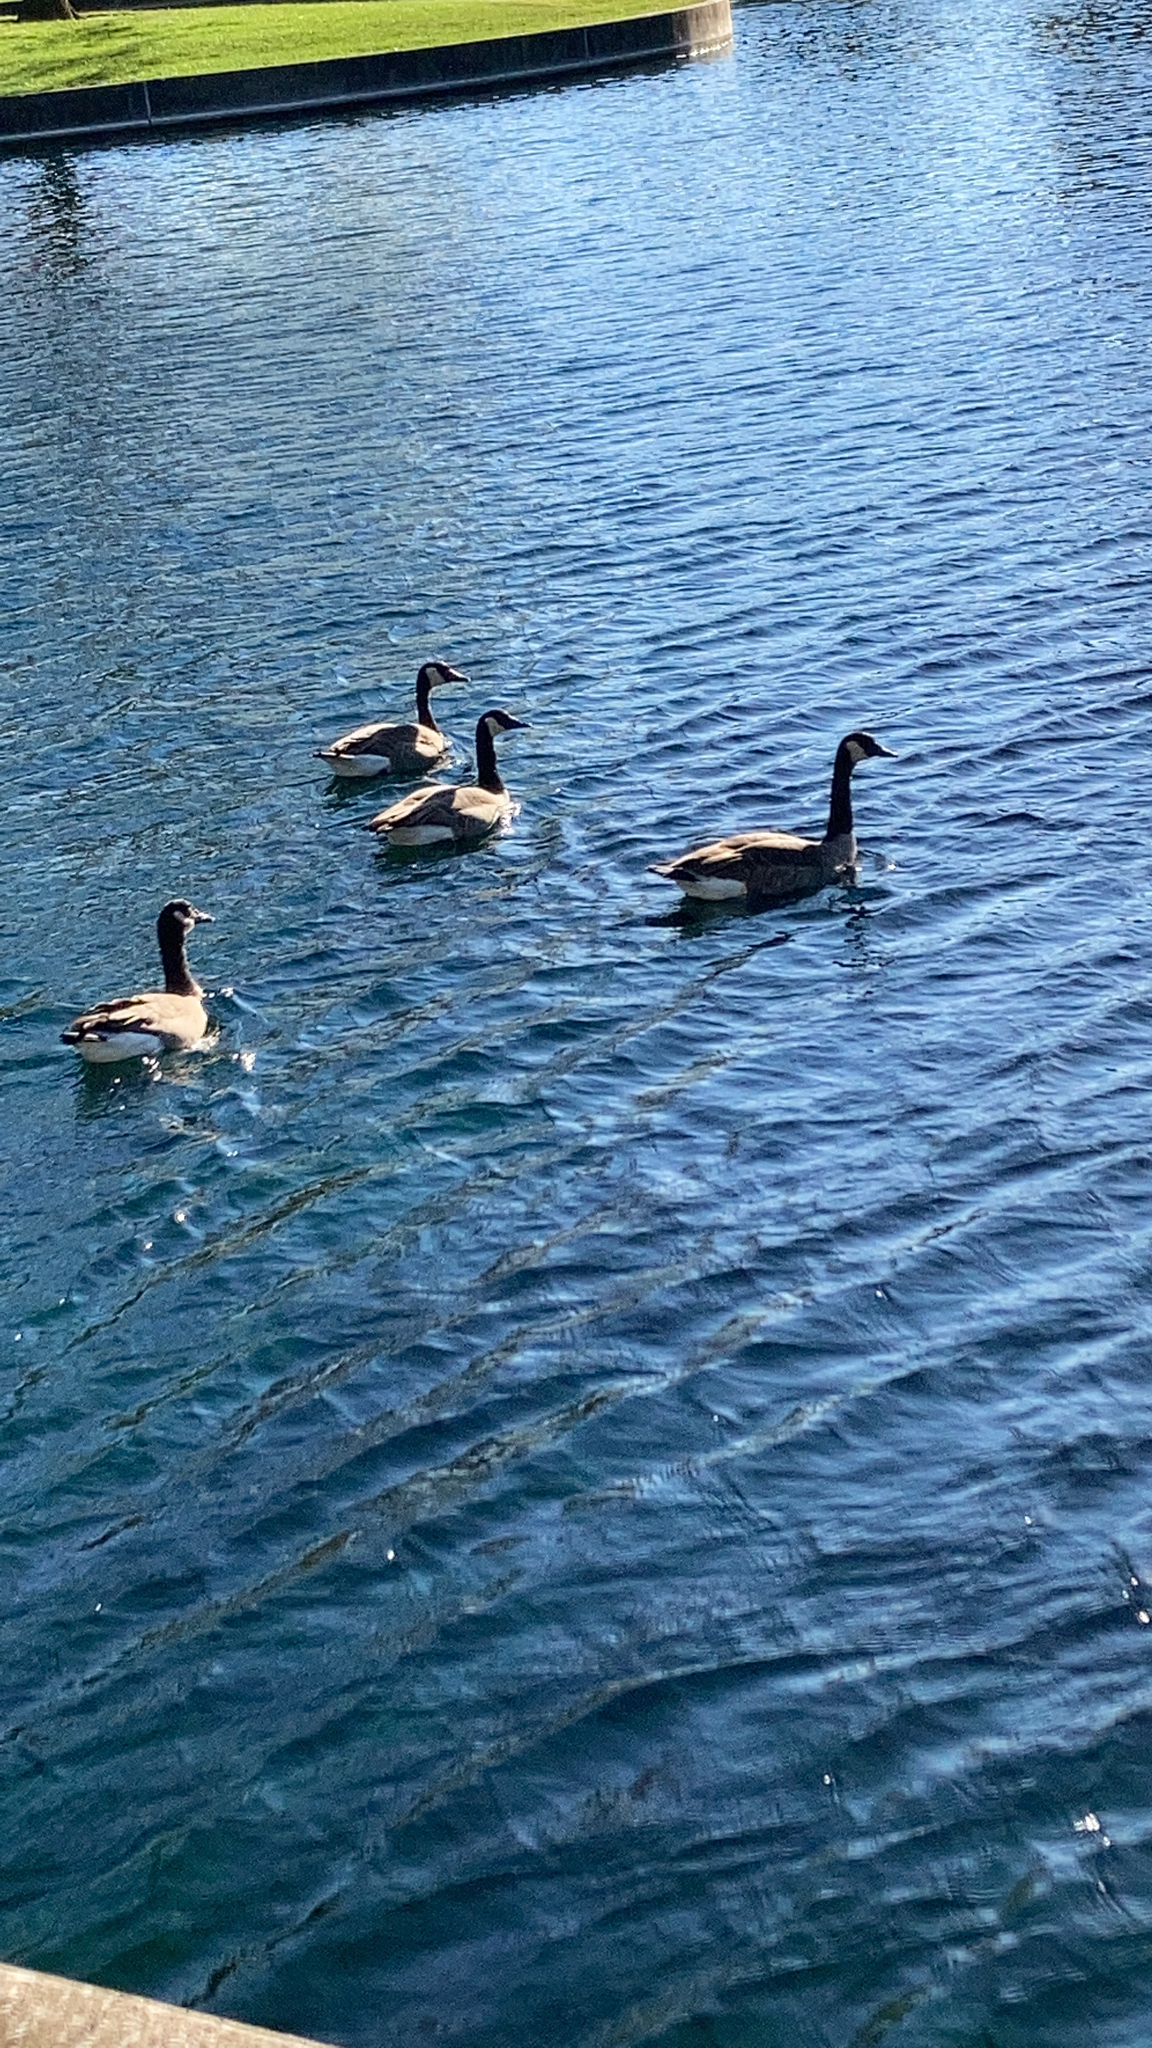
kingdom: Animalia
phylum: Chordata
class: Aves
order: Anseriformes
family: Anatidae
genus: Branta
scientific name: Branta canadensis
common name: Canada goose
